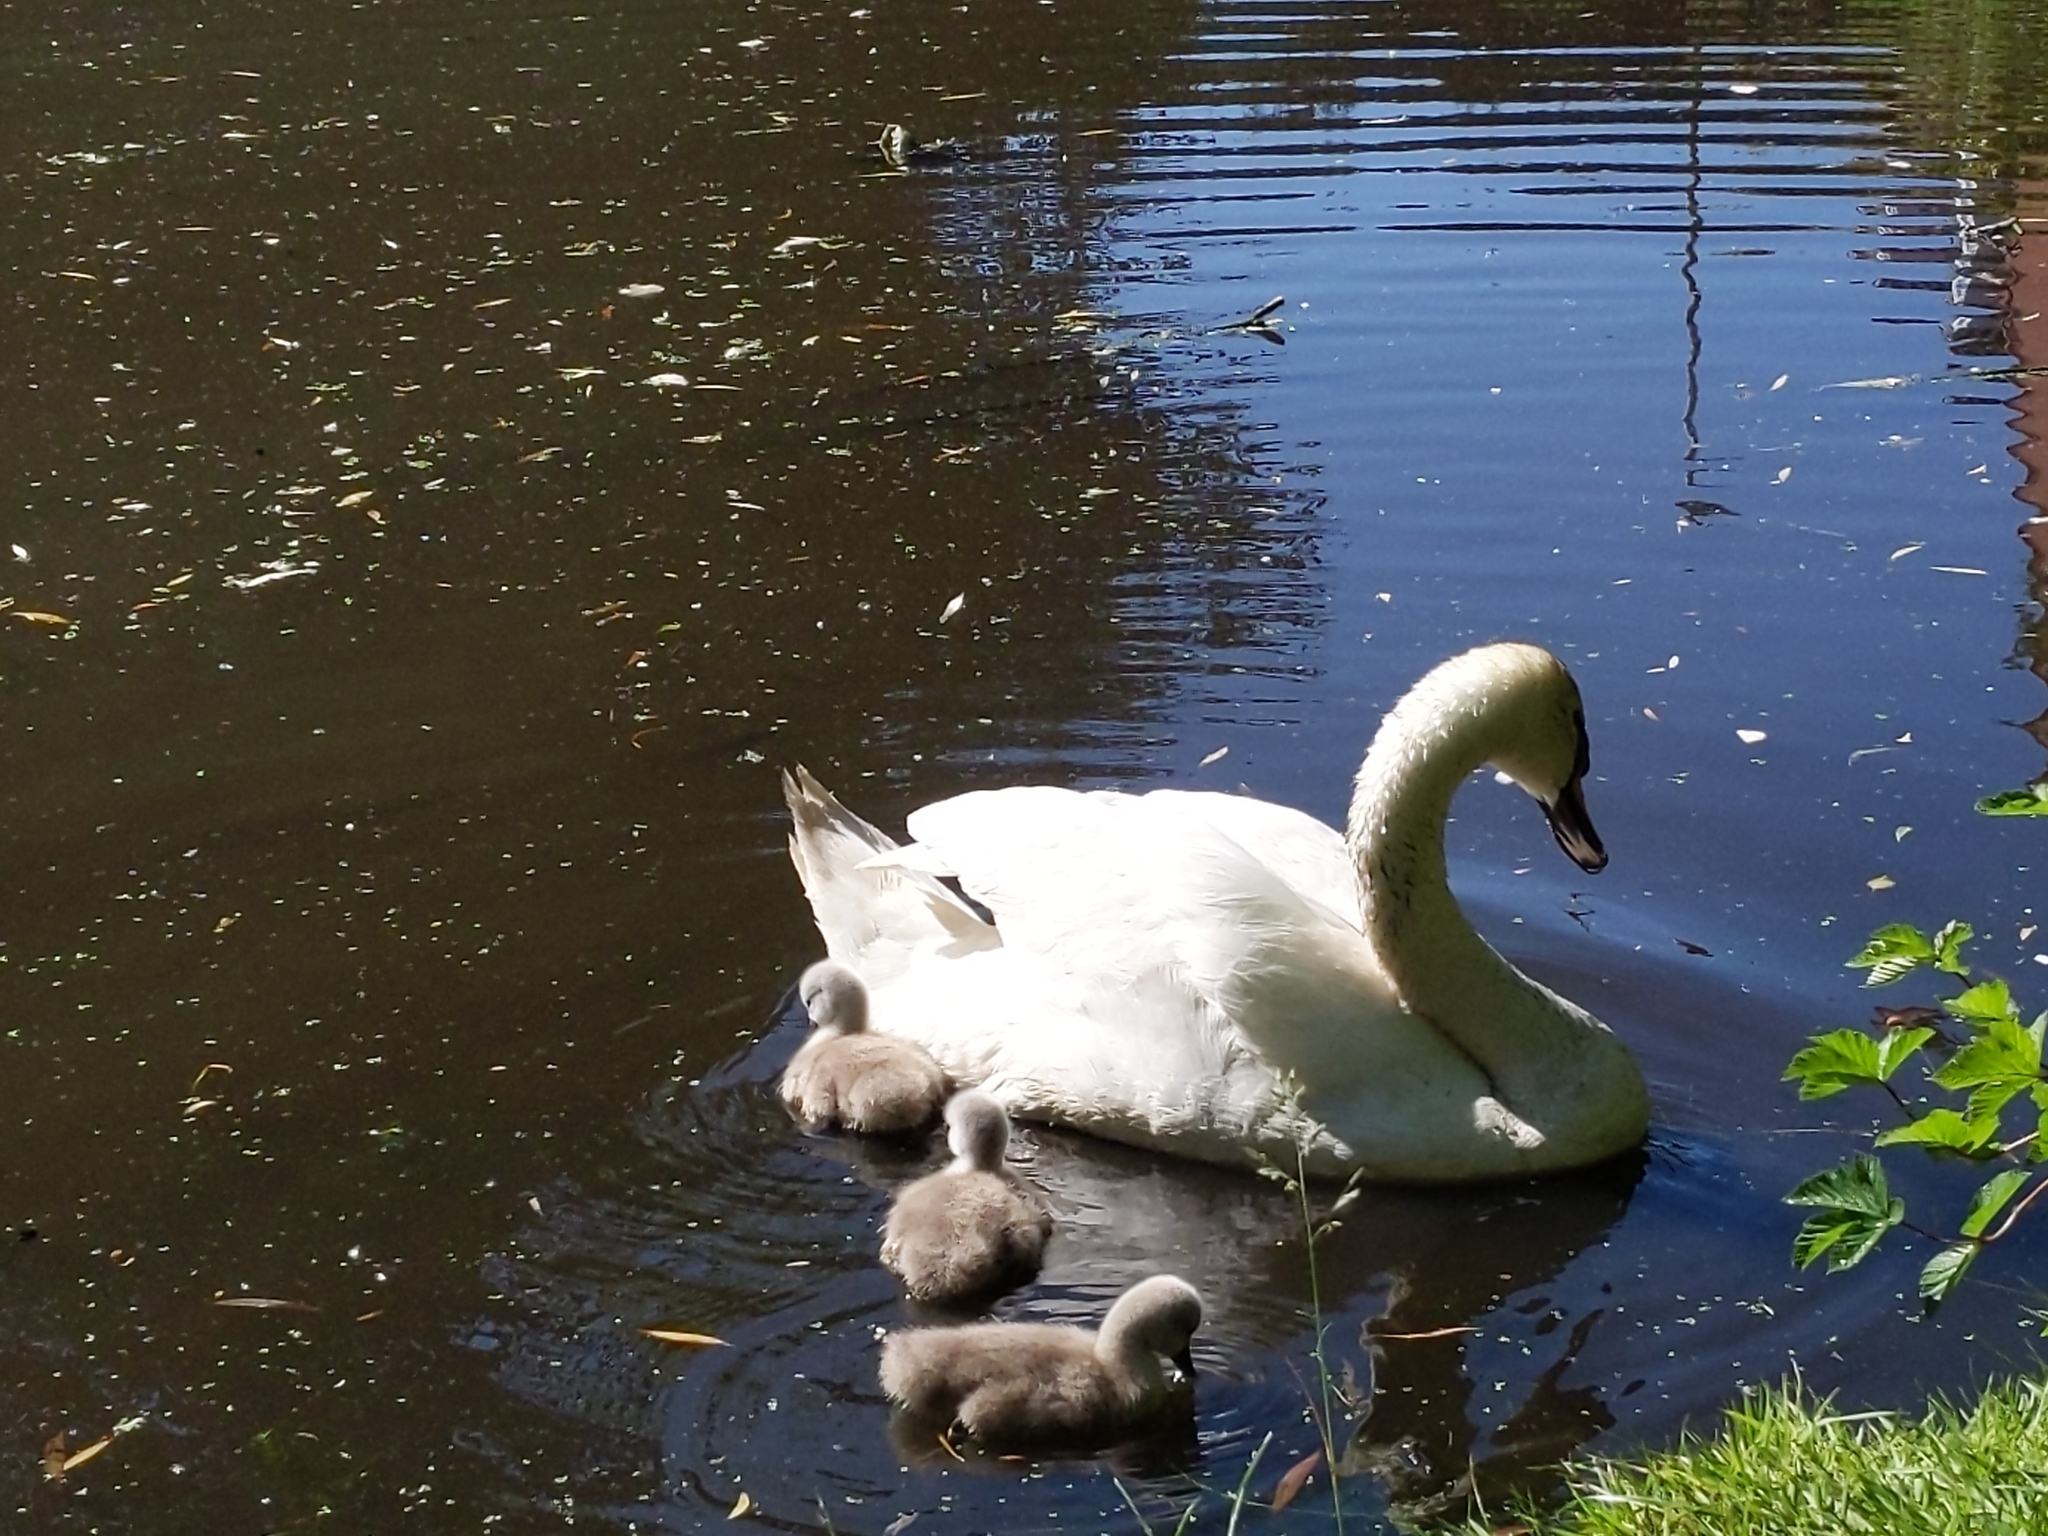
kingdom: Animalia
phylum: Chordata
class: Aves
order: Anseriformes
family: Anatidae
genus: Cygnus
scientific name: Cygnus olor
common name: Mute swan
